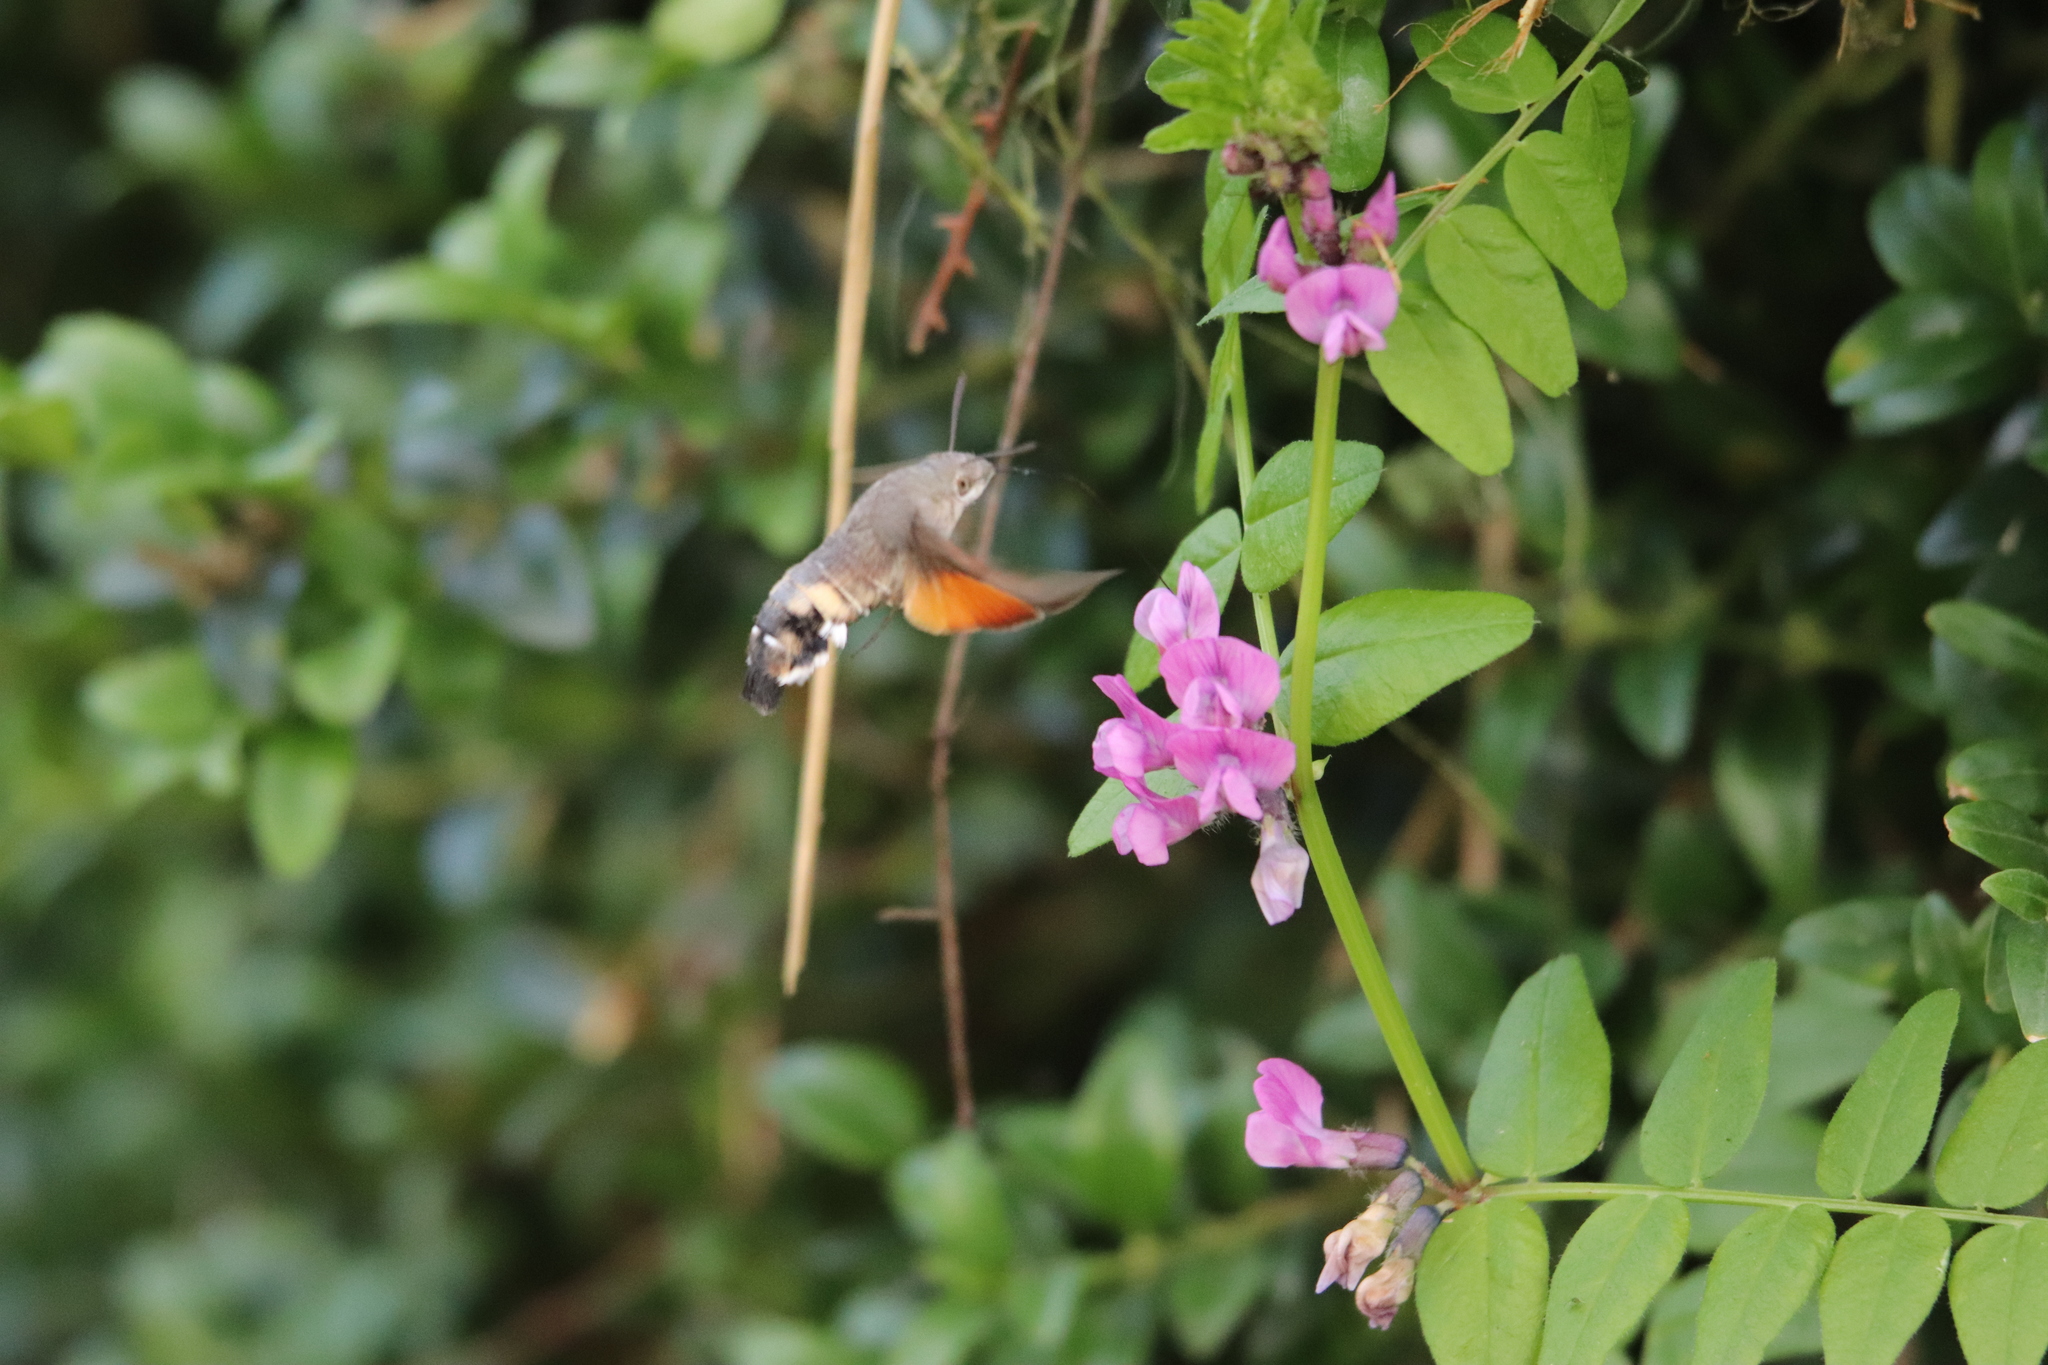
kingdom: Animalia
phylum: Arthropoda
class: Insecta
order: Lepidoptera
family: Sphingidae
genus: Macroglossum
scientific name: Macroglossum stellatarum
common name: Humming-bird hawk-moth
